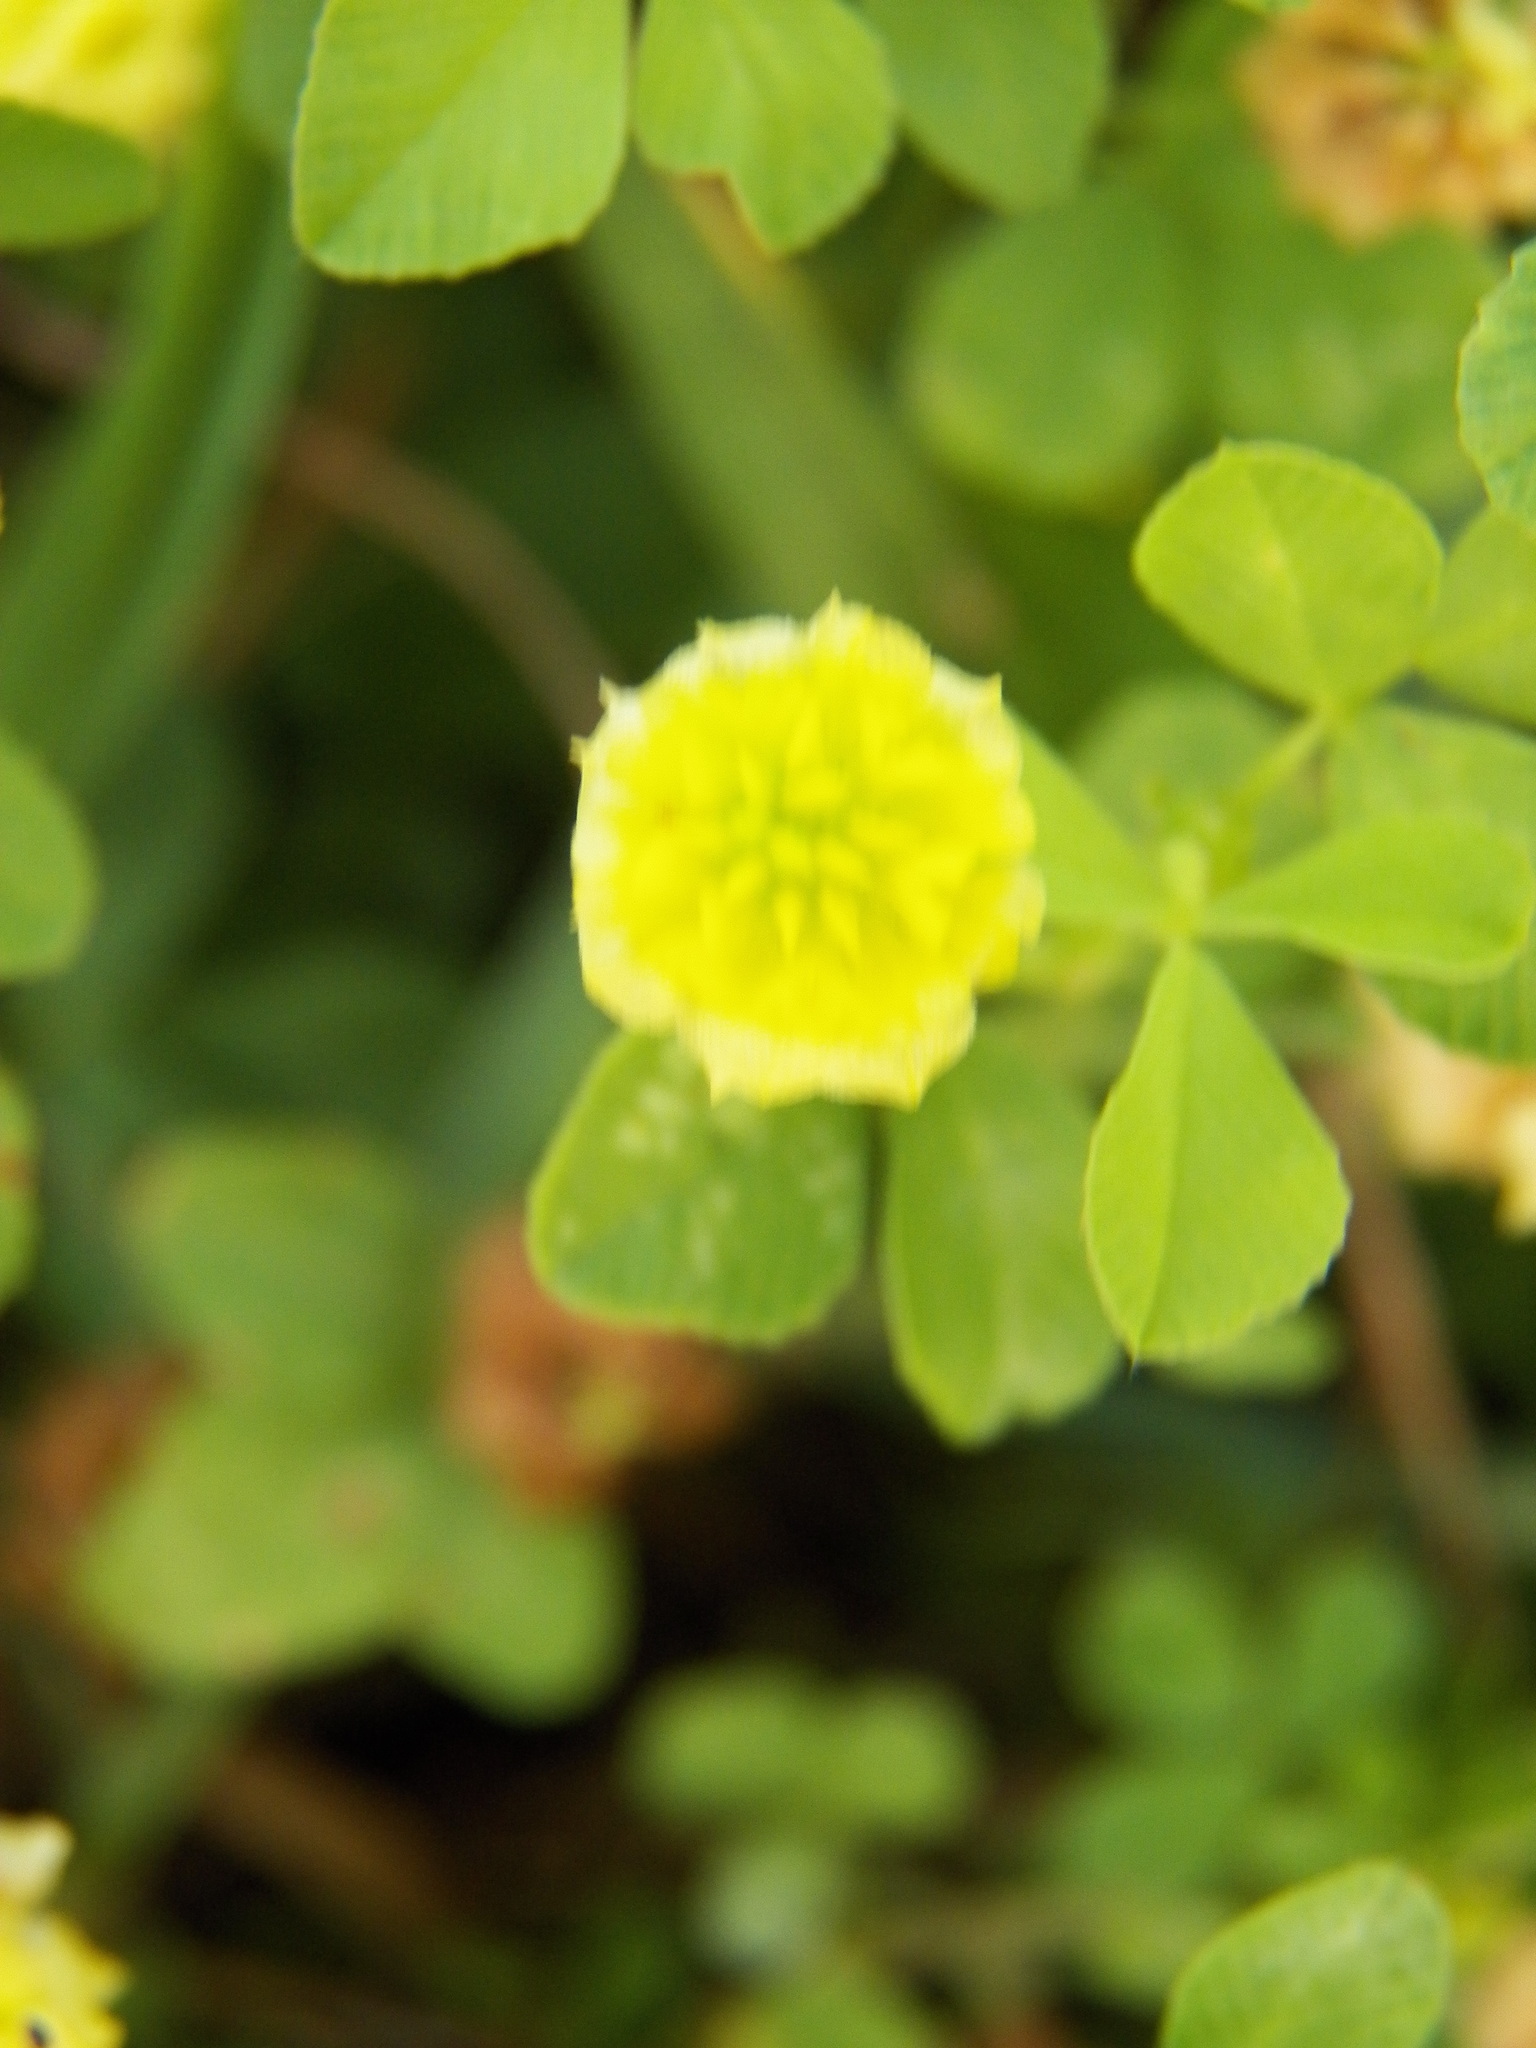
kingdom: Plantae
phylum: Tracheophyta
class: Magnoliopsida
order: Fabales
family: Fabaceae
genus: Trifolium
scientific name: Trifolium campestre
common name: Field clover
